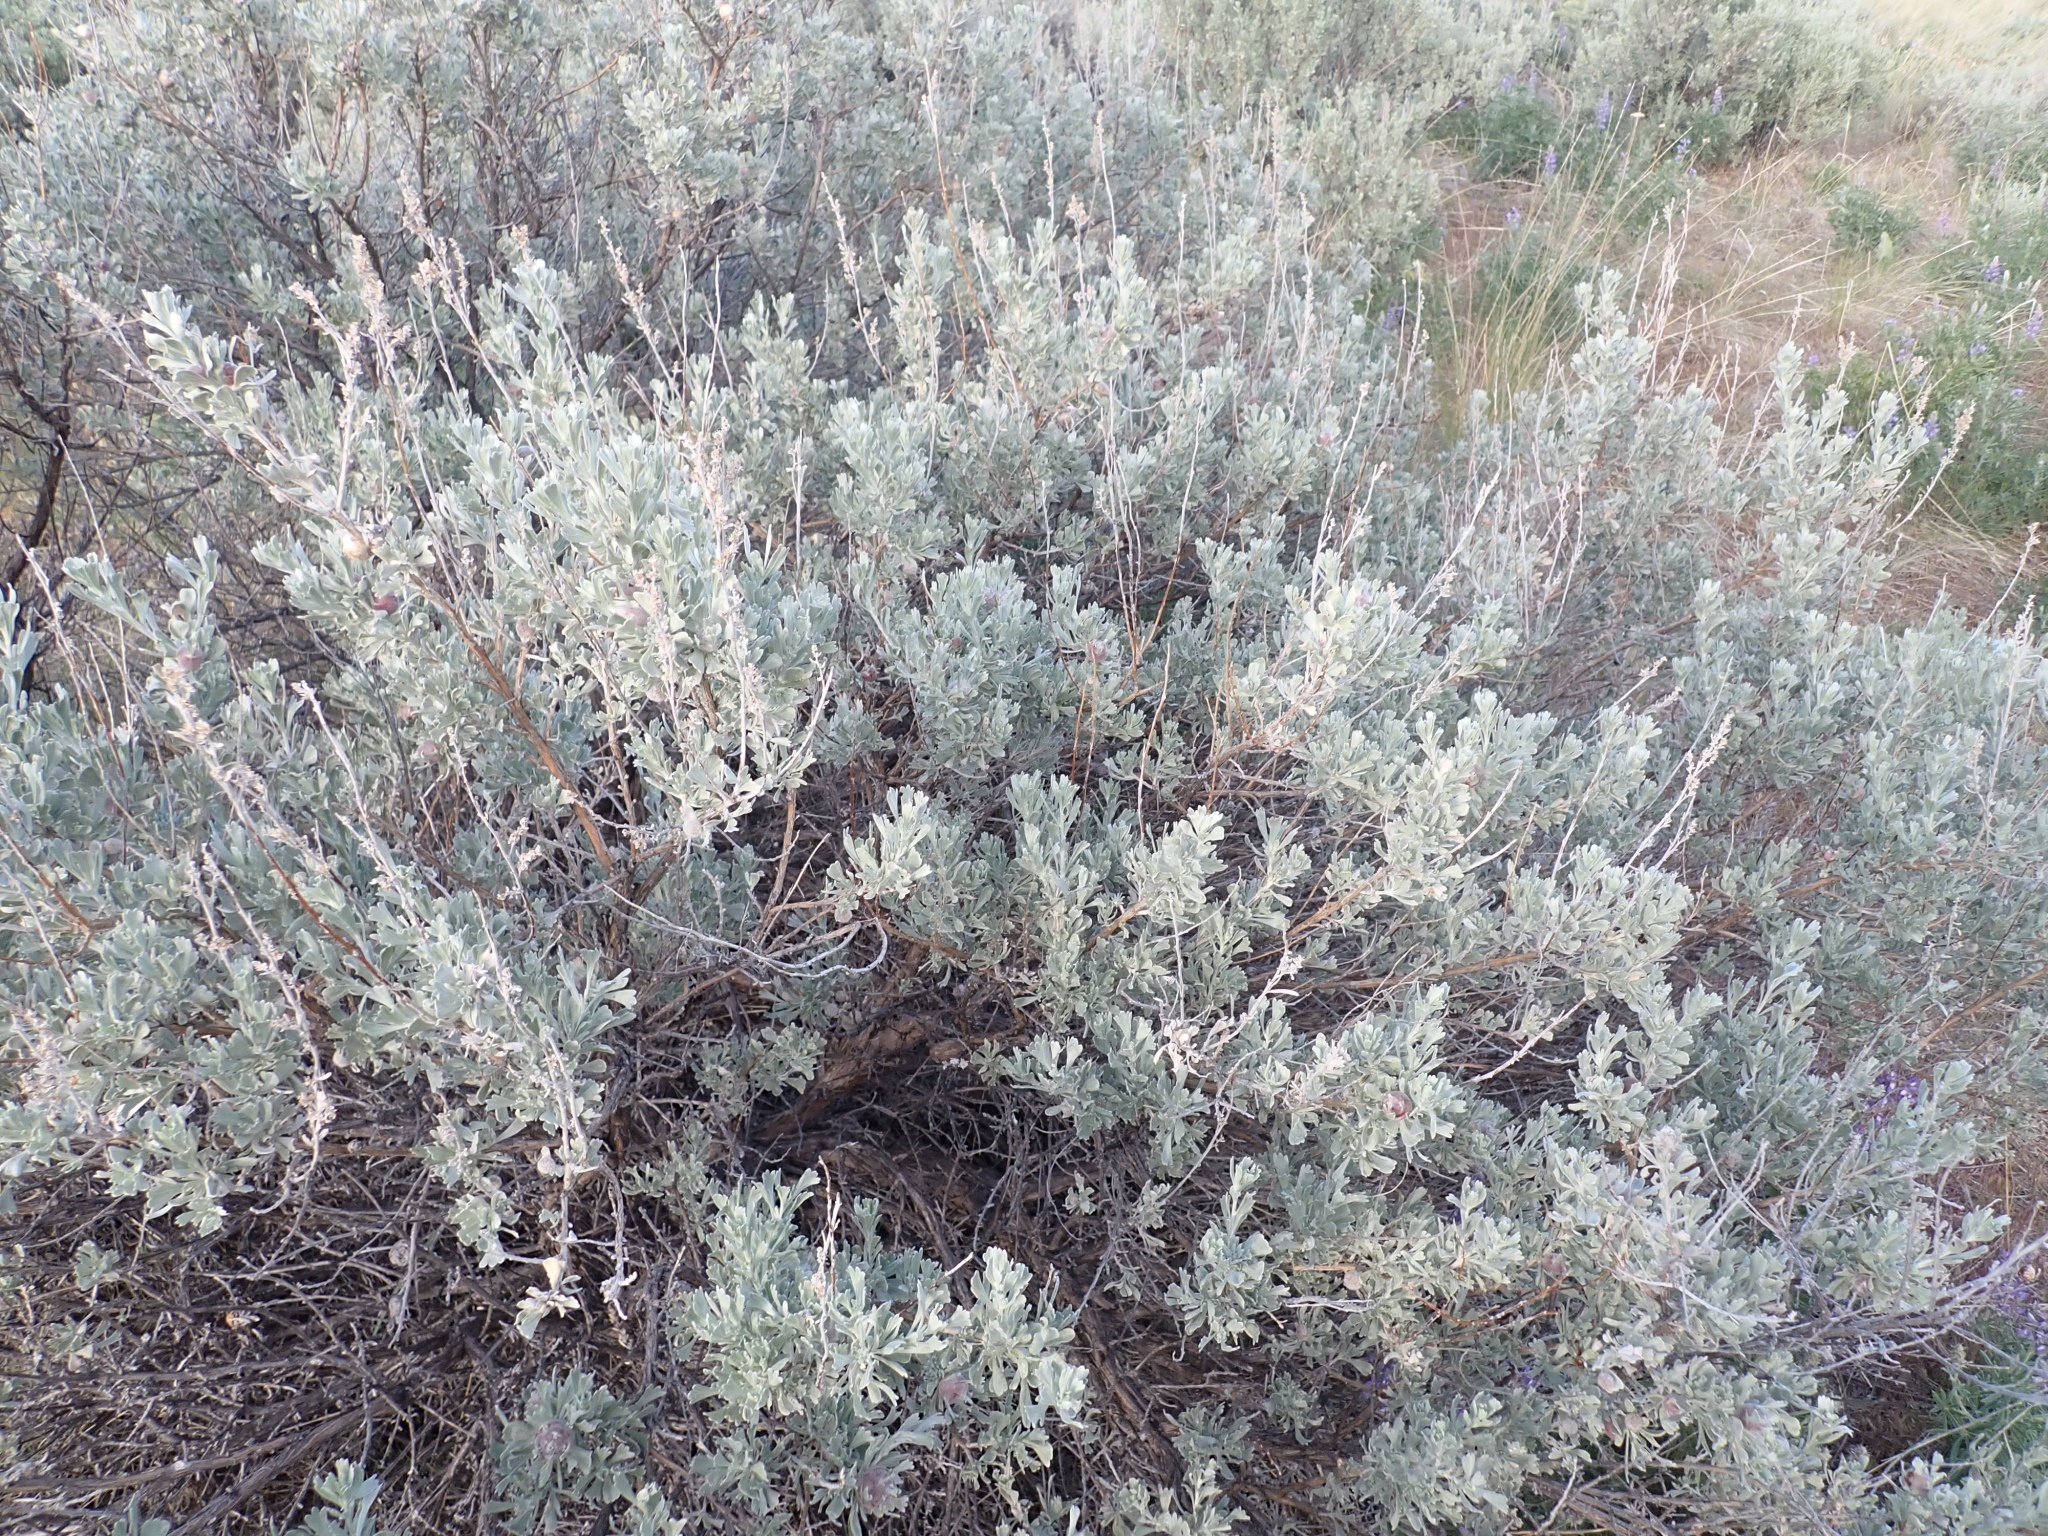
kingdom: Plantae
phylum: Tracheophyta
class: Magnoliopsida
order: Asterales
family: Asteraceae
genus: Artemisia
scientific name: Artemisia tridentata
